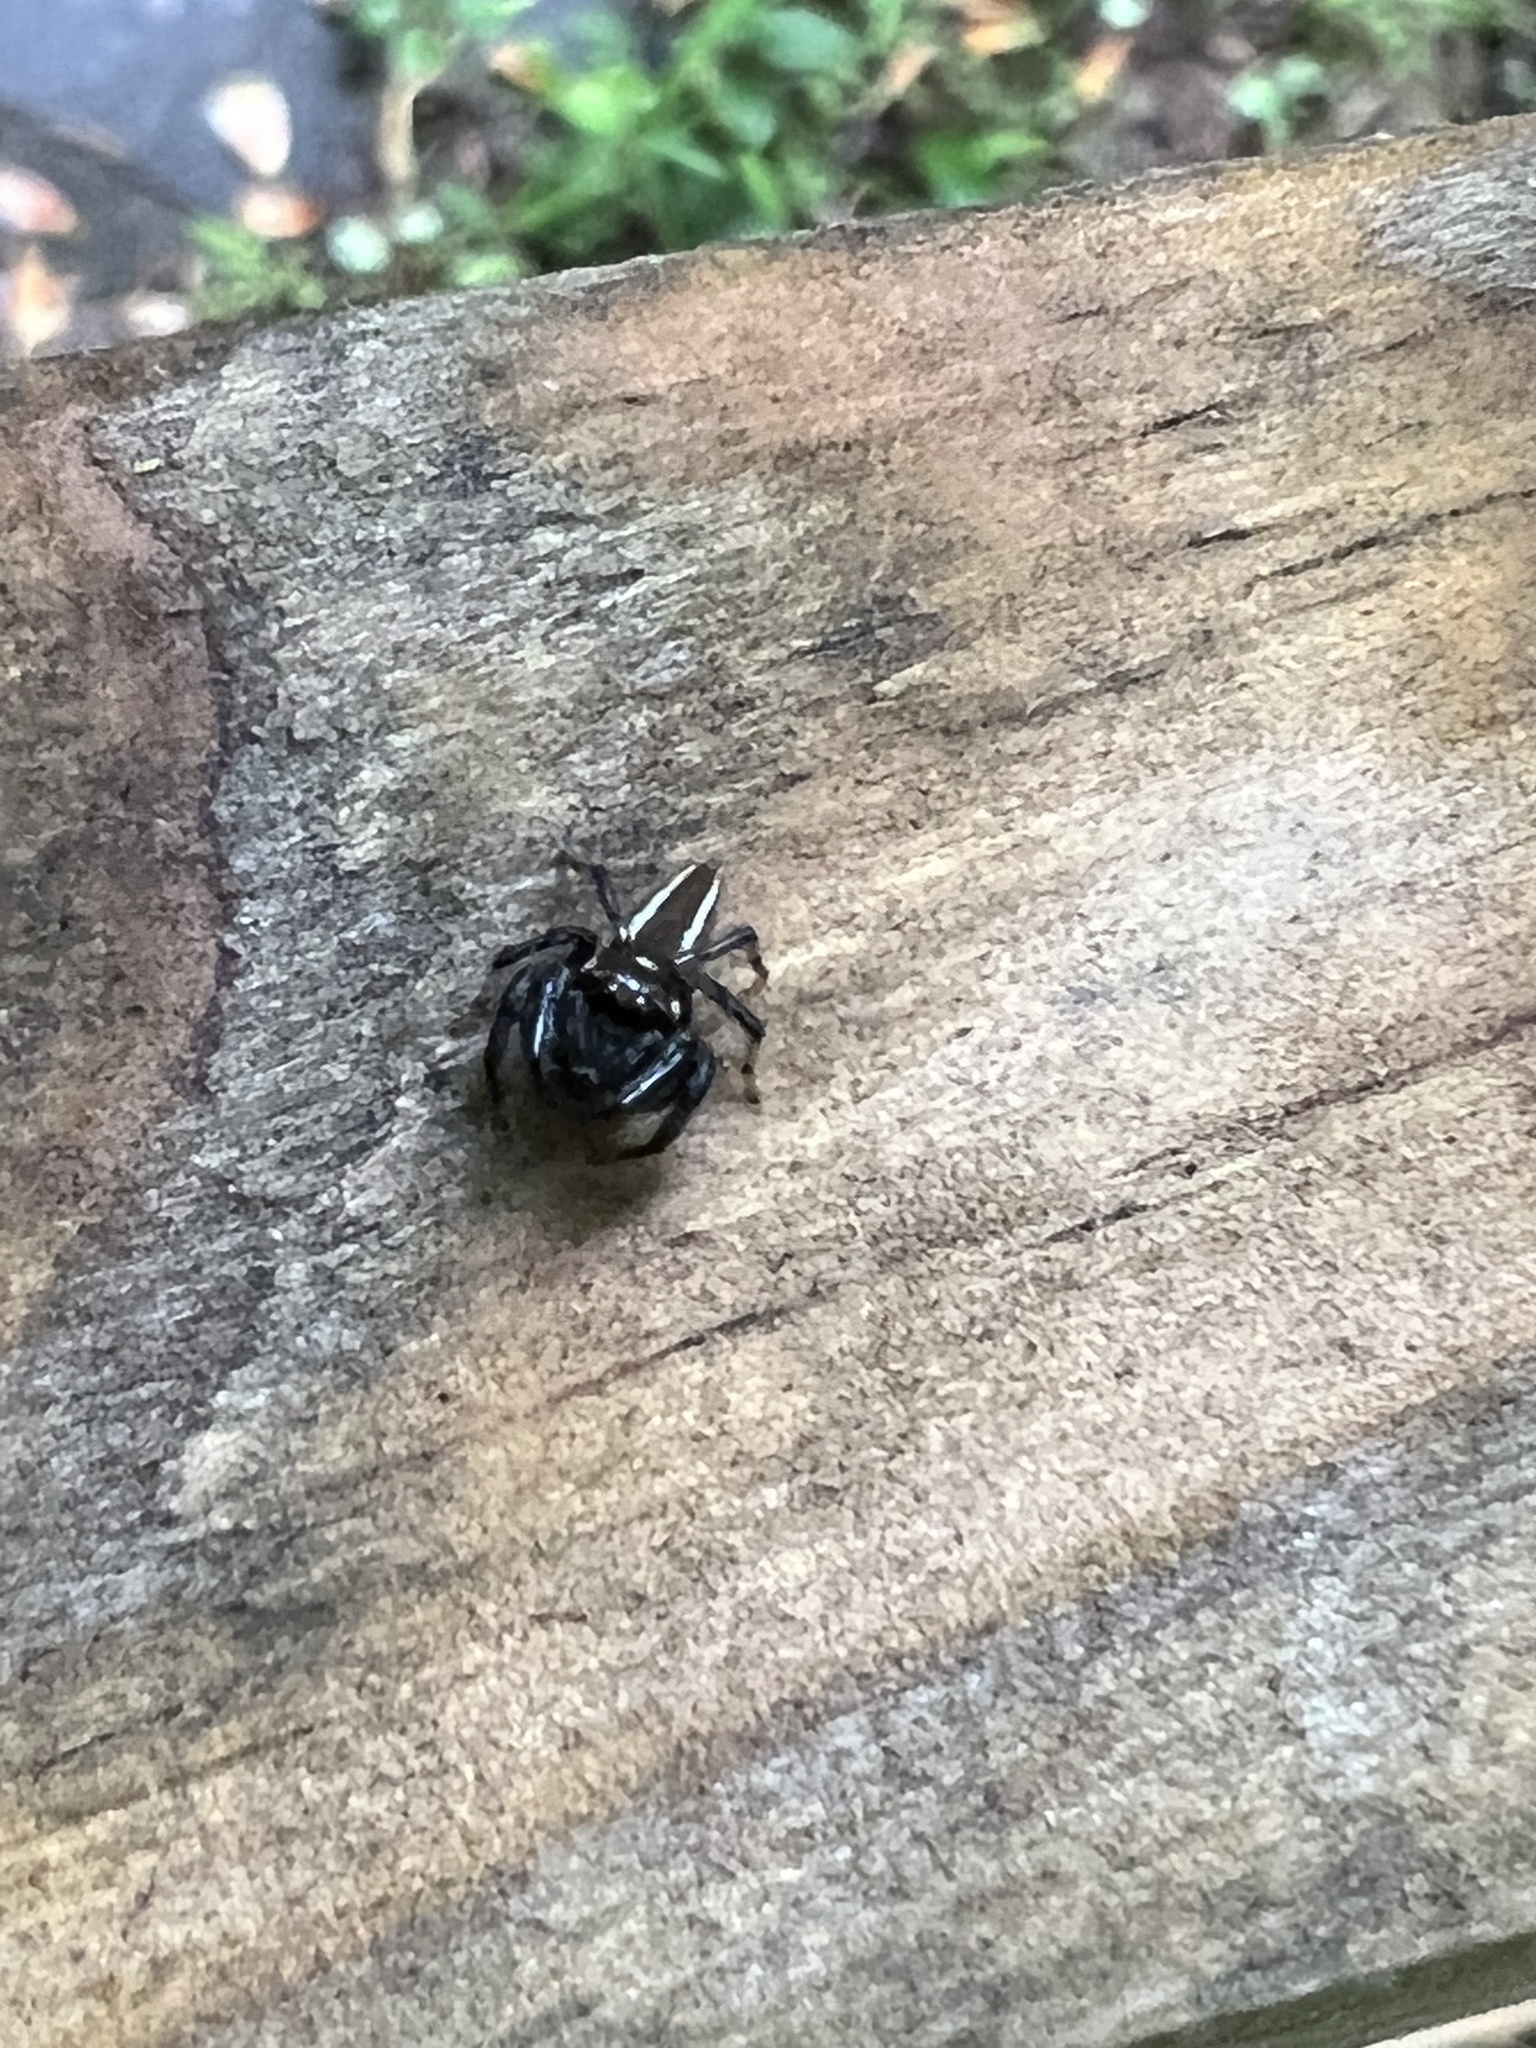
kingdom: Animalia
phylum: Arthropoda
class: Arachnida
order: Araneae
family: Salticidae
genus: Colonus
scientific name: Colonus sylvanus
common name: Jumping spiders
